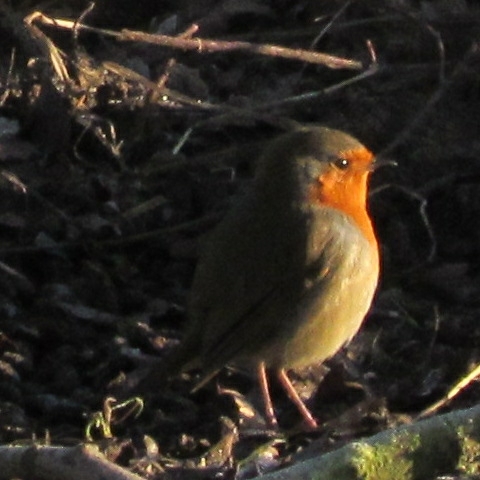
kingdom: Animalia
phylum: Chordata
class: Aves
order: Passeriformes
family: Muscicapidae
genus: Erithacus
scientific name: Erithacus rubecula
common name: European robin
